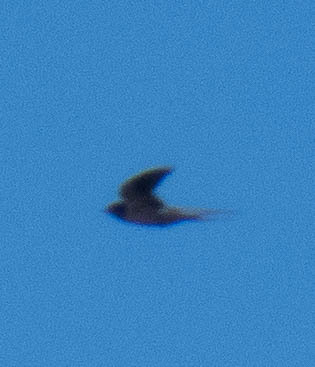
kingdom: Animalia
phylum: Chordata
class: Aves
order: Passeriformes
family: Hirundinidae
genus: Hirundo
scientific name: Hirundo rustica
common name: Barn swallow
